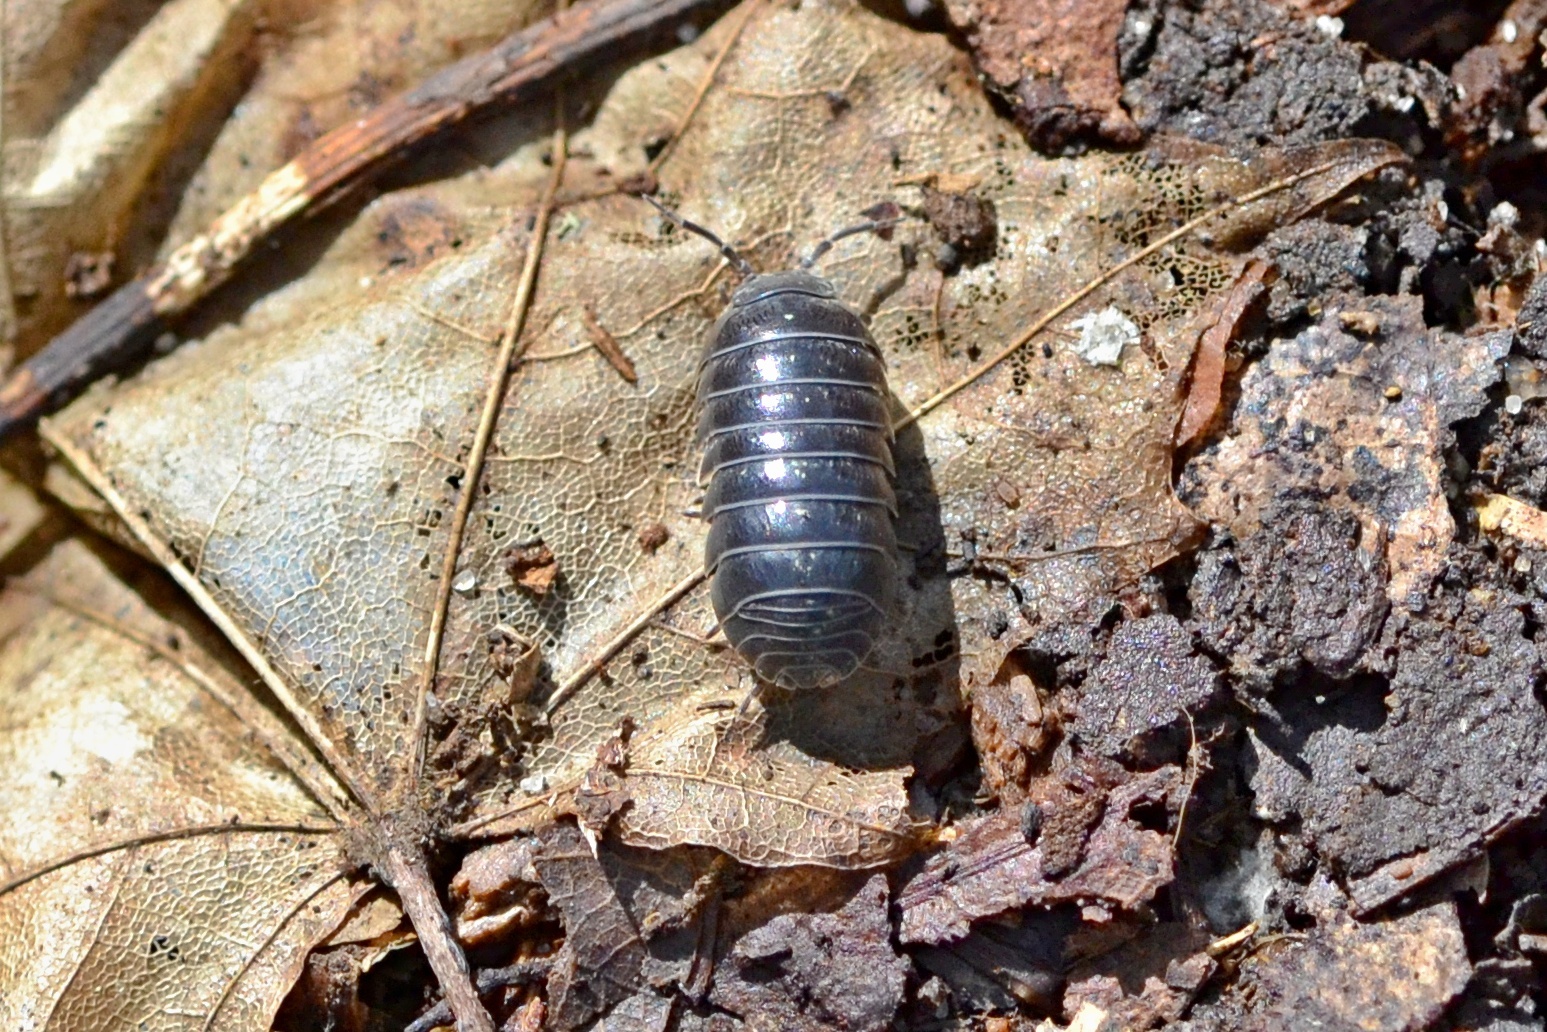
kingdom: Animalia
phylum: Arthropoda
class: Malacostraca
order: Isopoda
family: Armadillidiidae
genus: Armadillidium
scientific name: Armadillidium vulgare
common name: Common pill woodlouse
